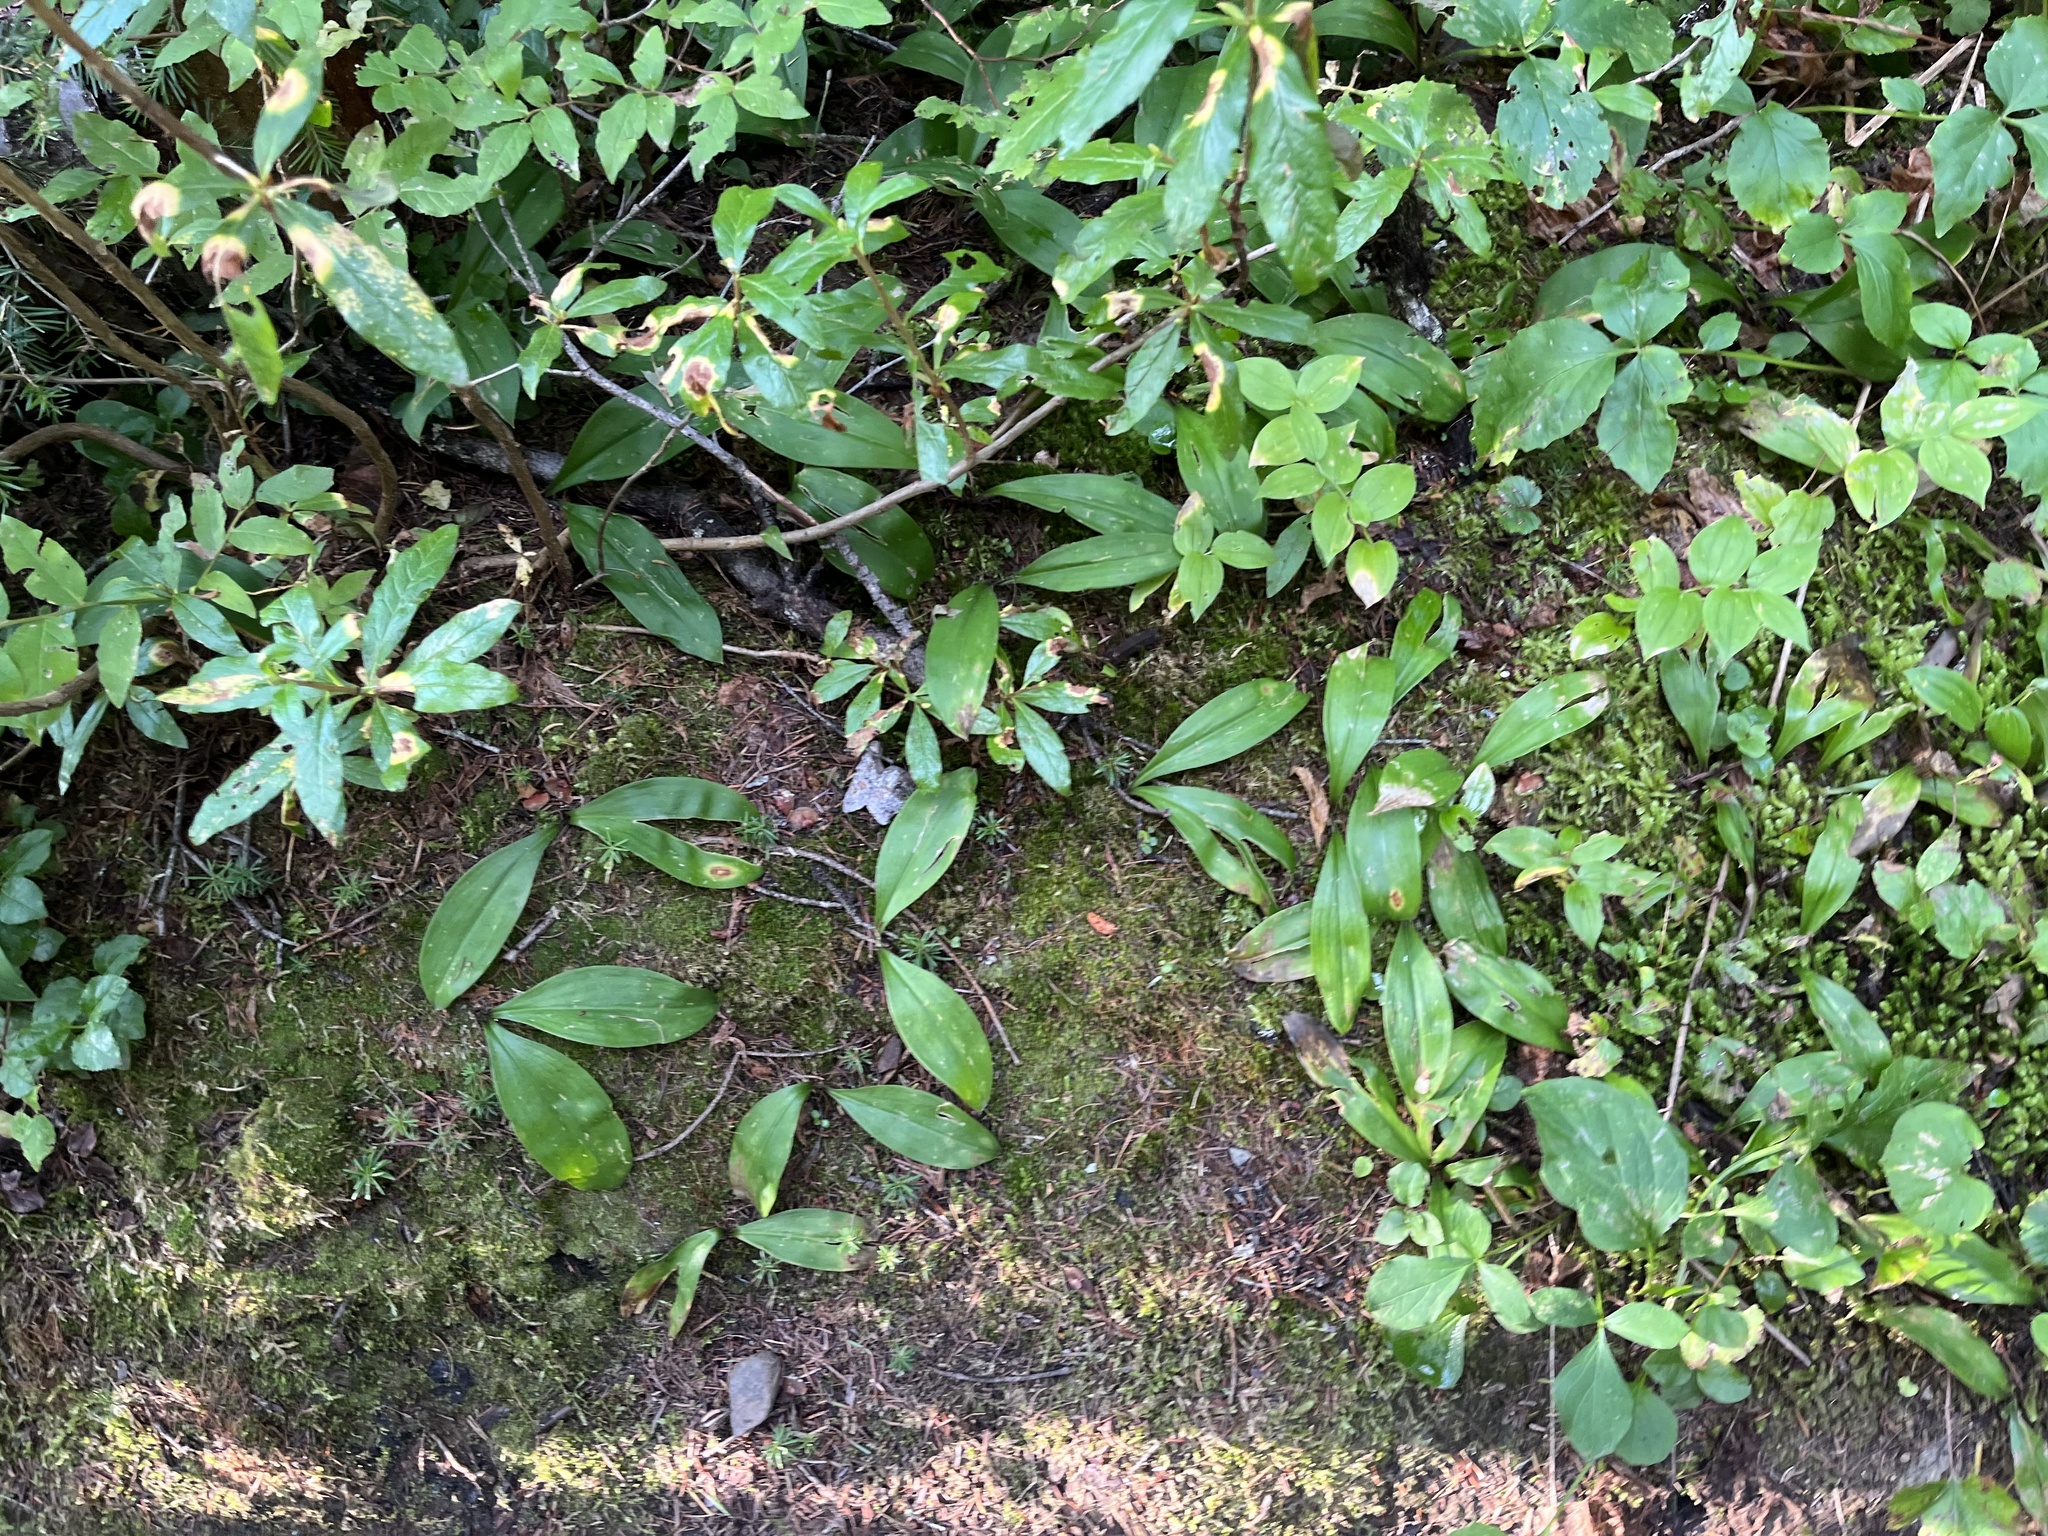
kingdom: Plantae
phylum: Tracheophyta
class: Liliopsida
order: Liliales
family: Liliaceae
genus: Clintonia
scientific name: Clintonia uniflora
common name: Queen's cup
